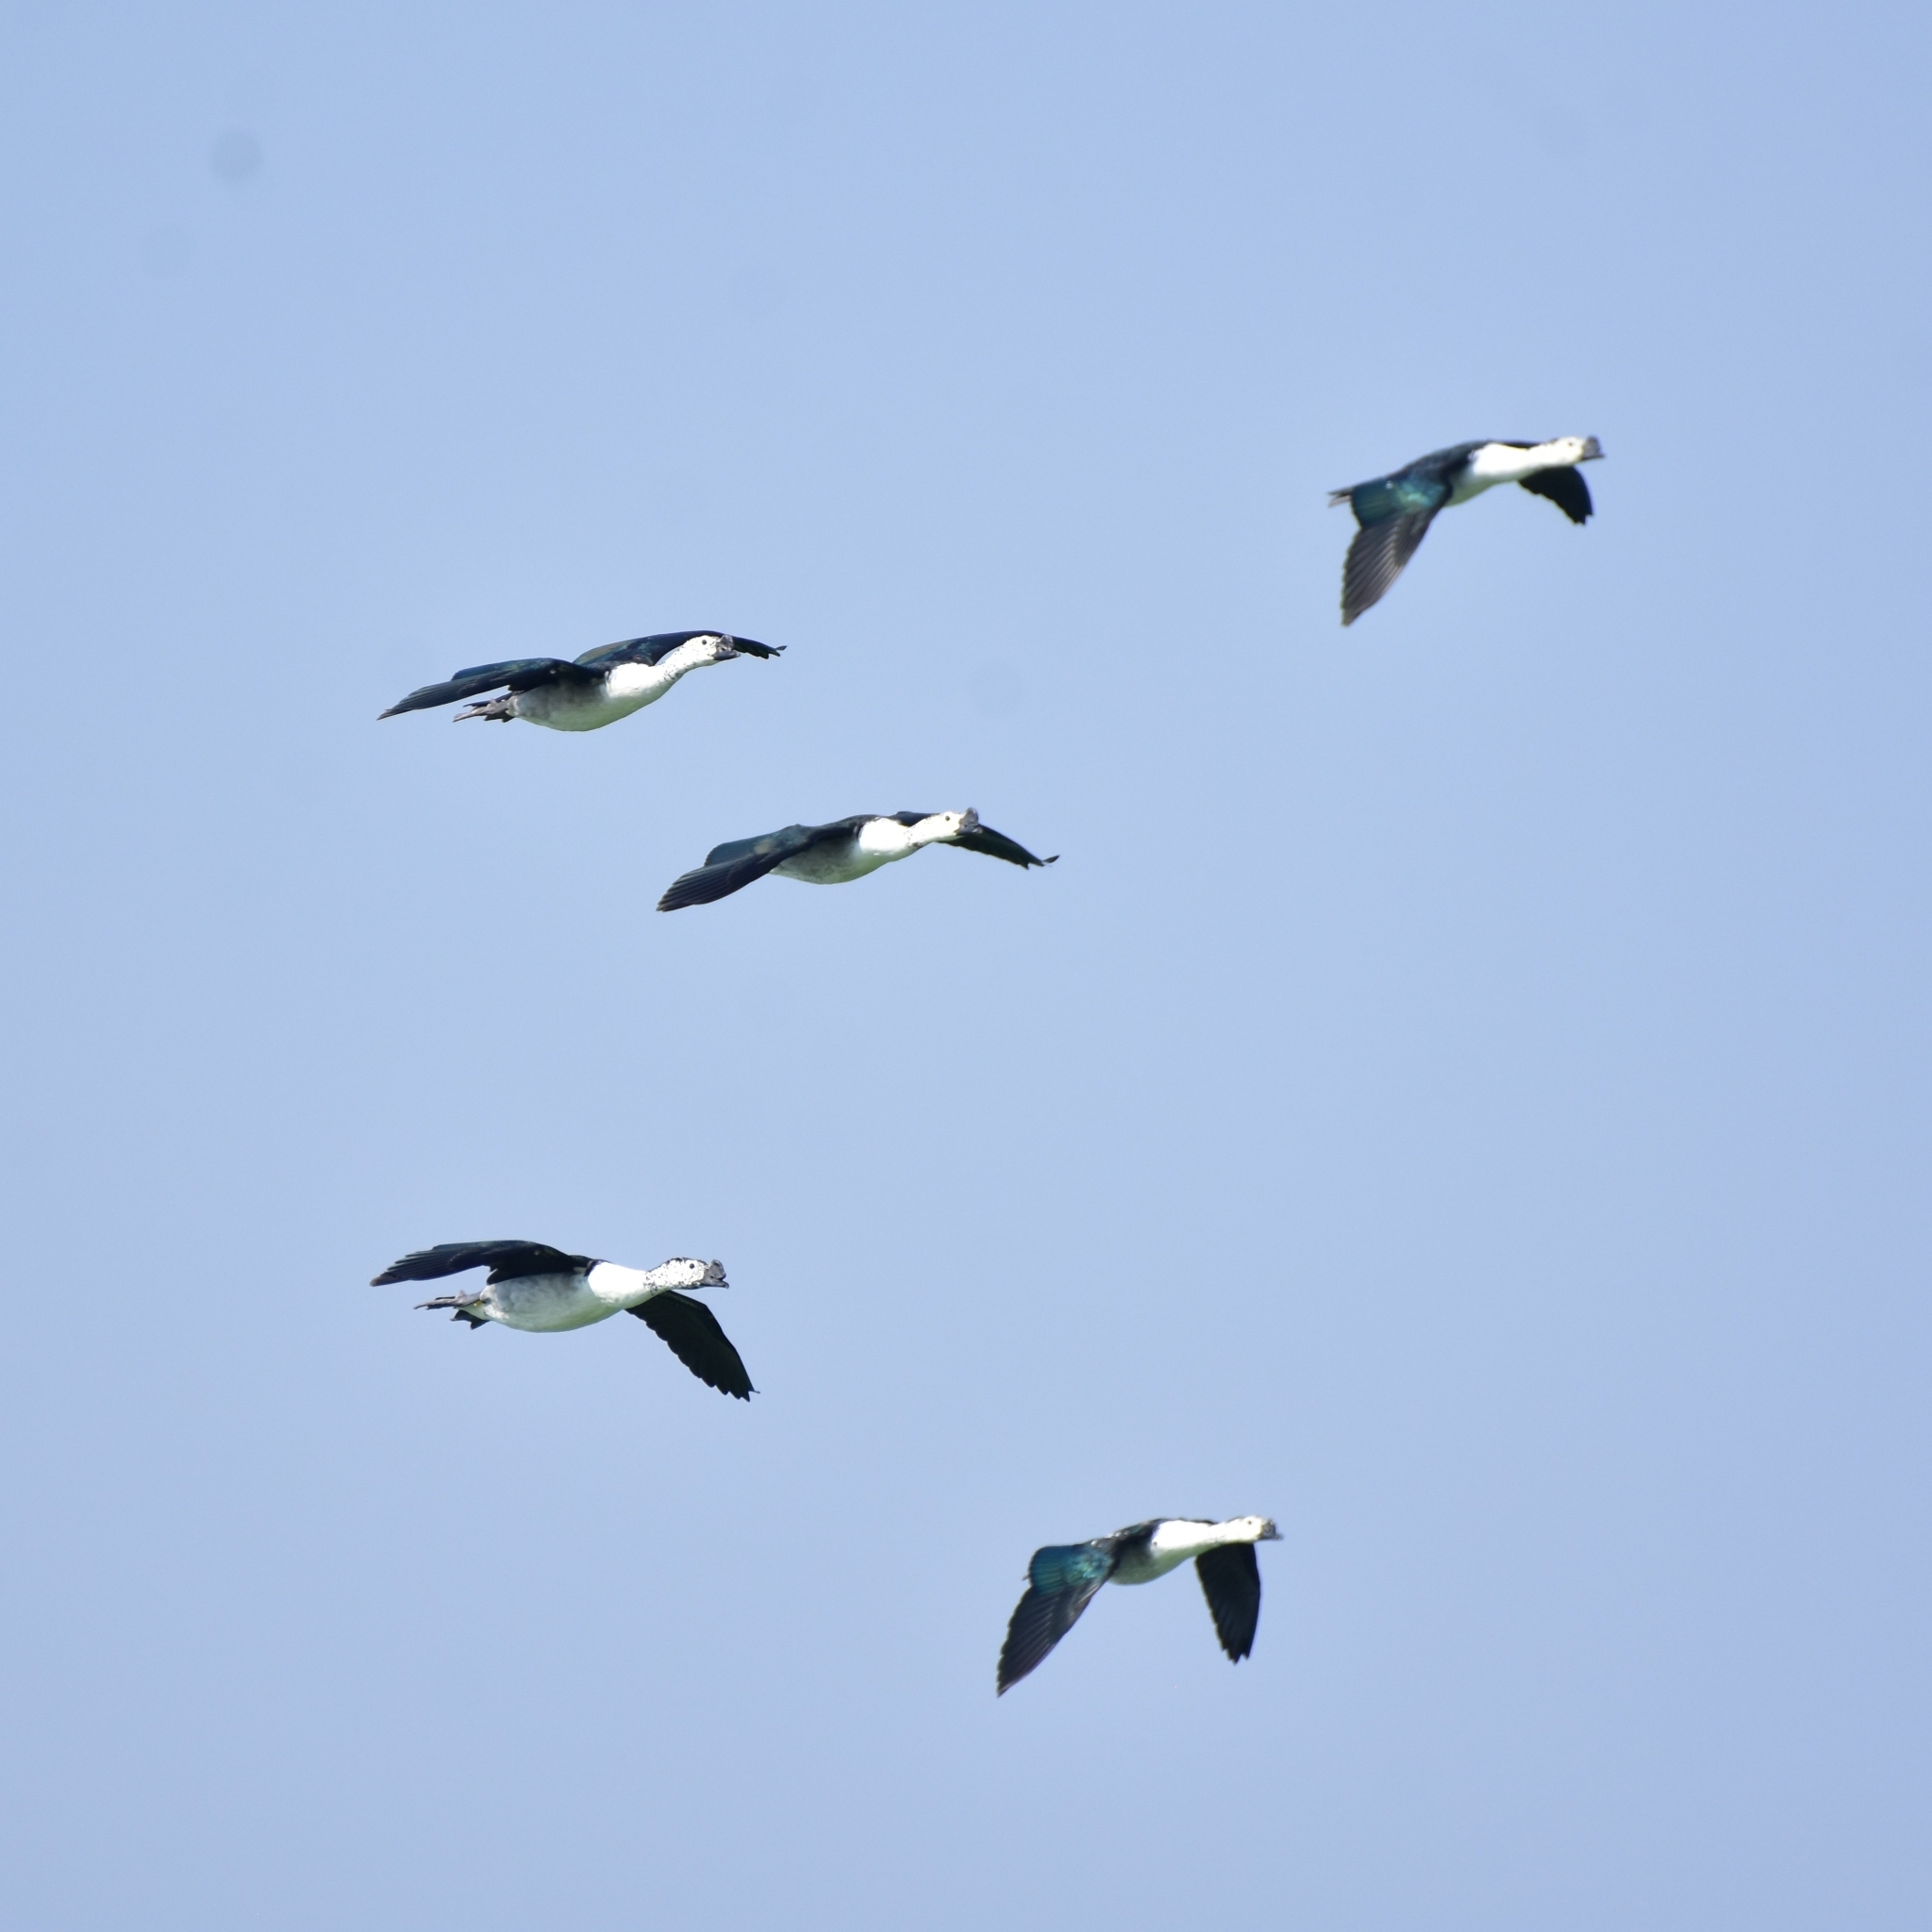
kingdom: Animalia
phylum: Chordata
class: Aves
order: Anseriformes
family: Anatidae
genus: Sarkidiornis
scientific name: Sarkidiornis melanotos
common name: Comb duck
